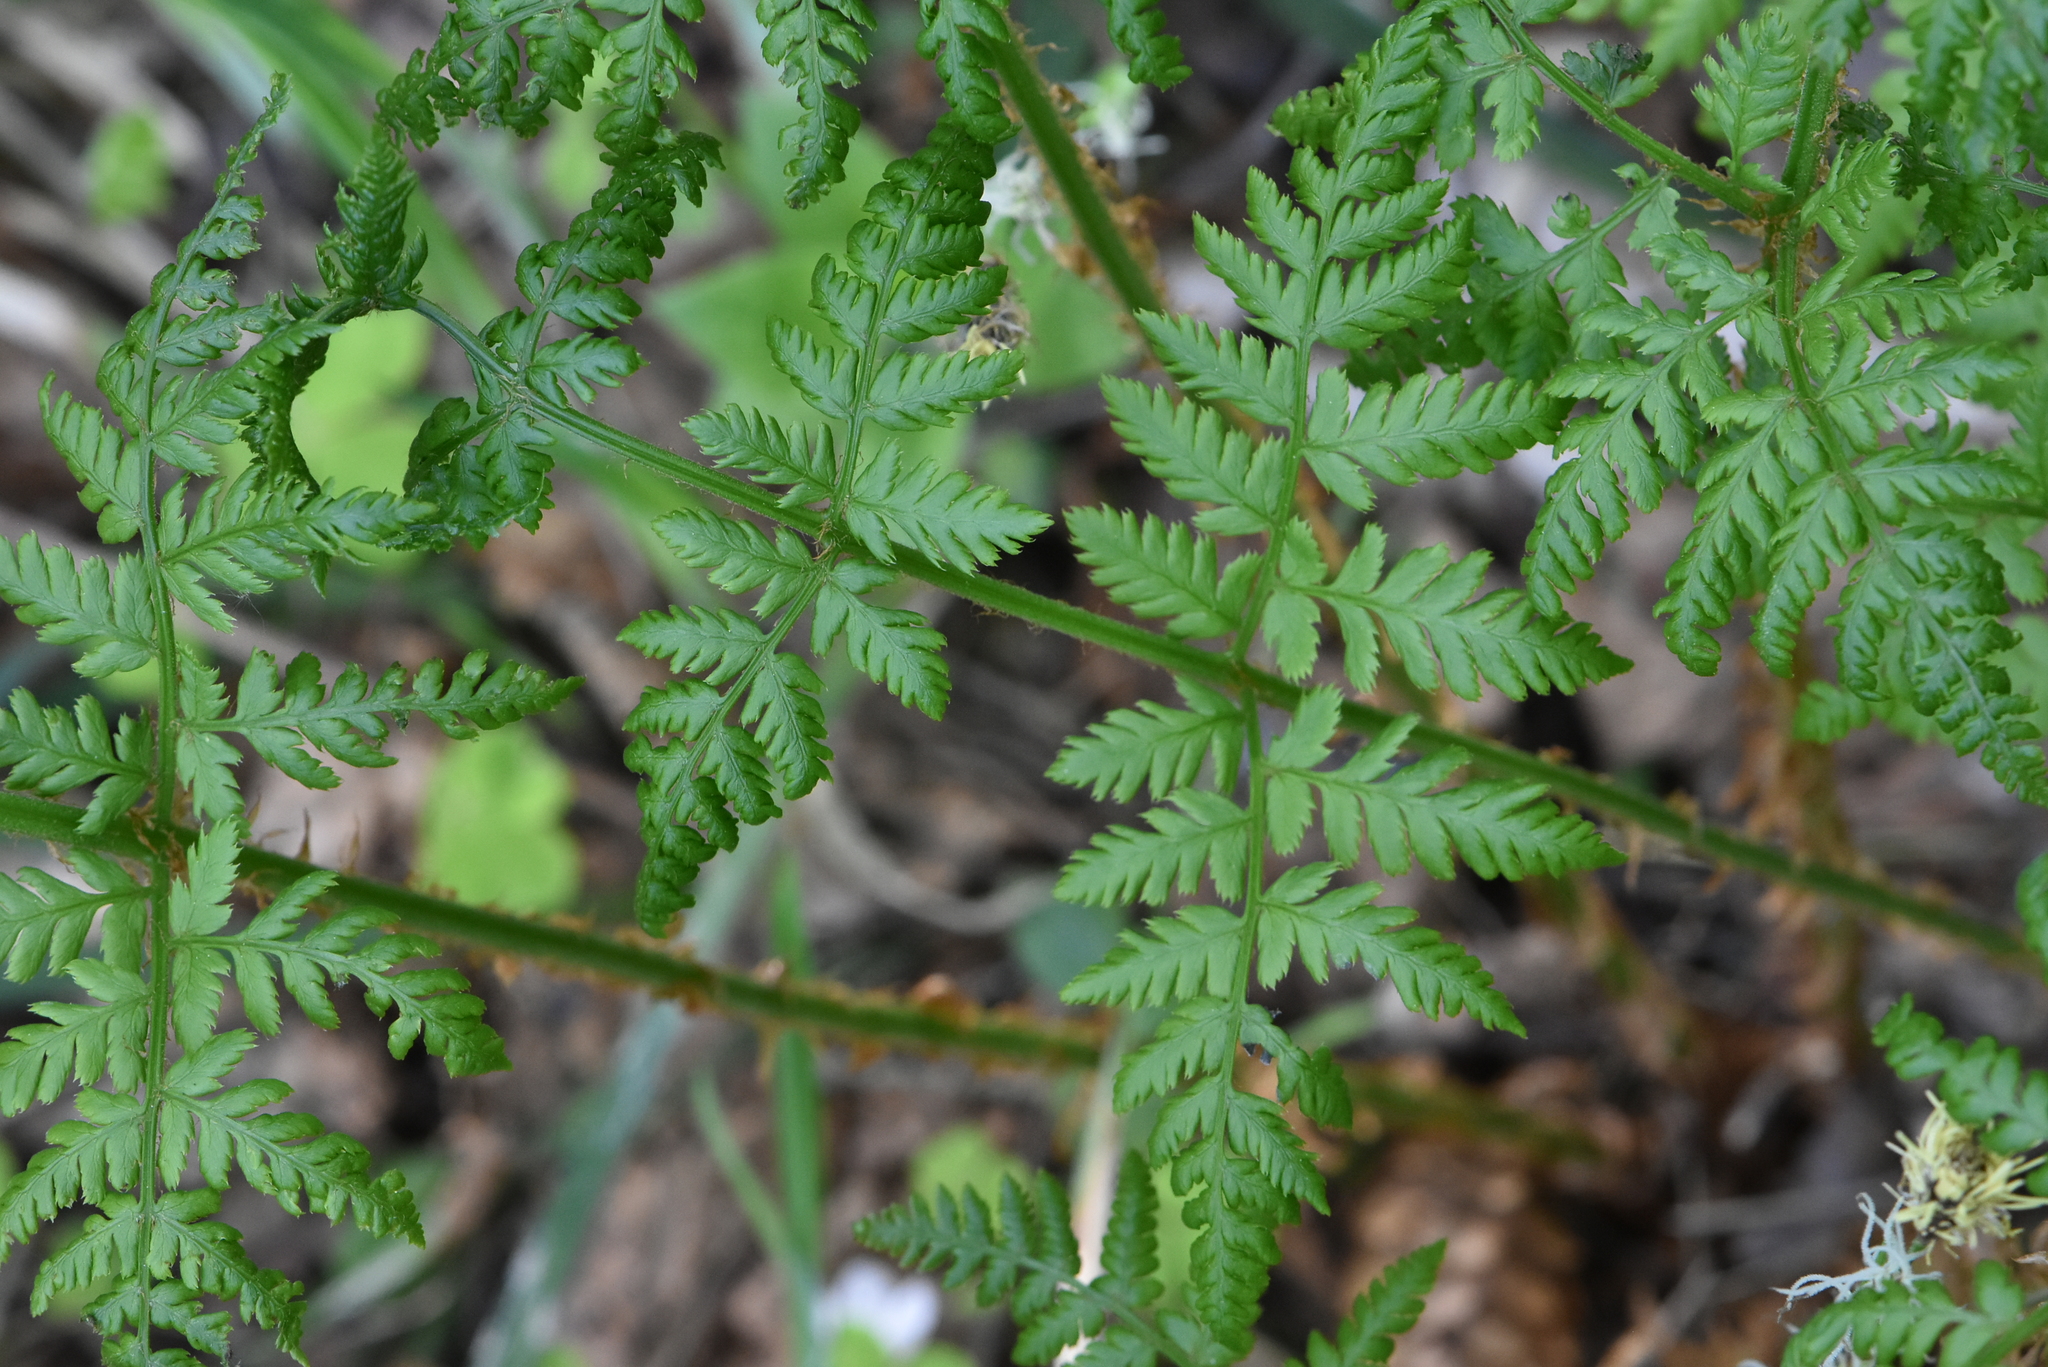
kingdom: Plantae
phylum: Tracheophyta
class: Polypodiopsida
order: Polypodiales
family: Dryopteridaceae
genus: Dryopteris
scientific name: Dryopteris expansa
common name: Northern buckler fern
